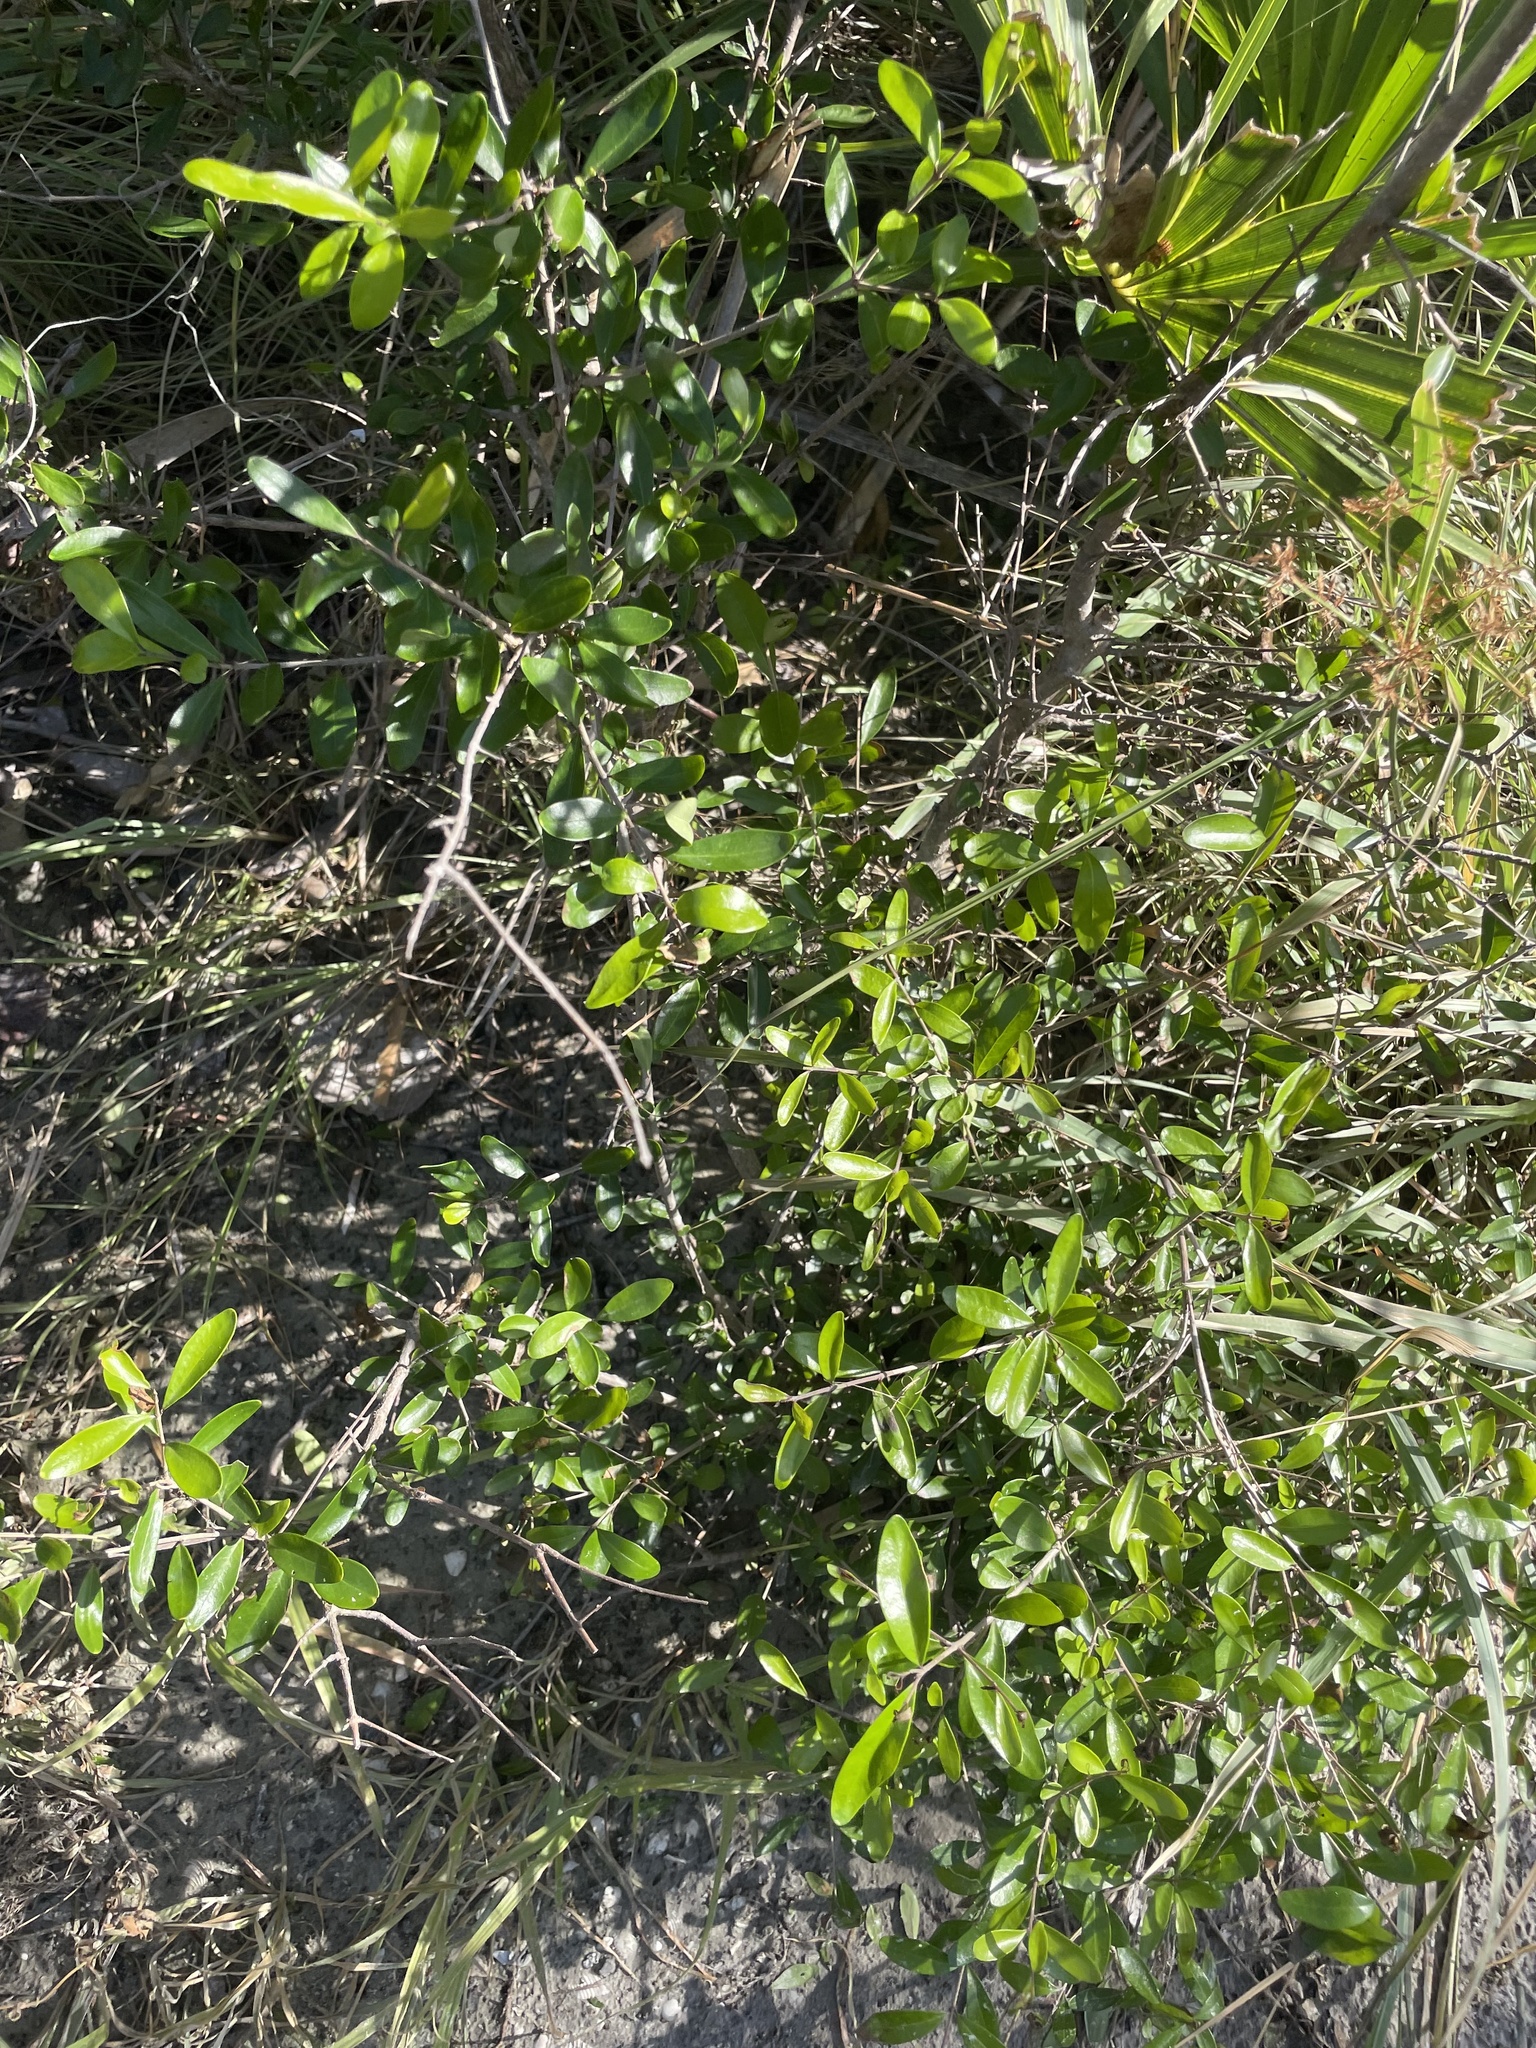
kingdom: Plantae
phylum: Tracheophyta
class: Magnoliopsida
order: Lamiales
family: Oleaceae
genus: Forestiera
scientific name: Forestiera segregata
